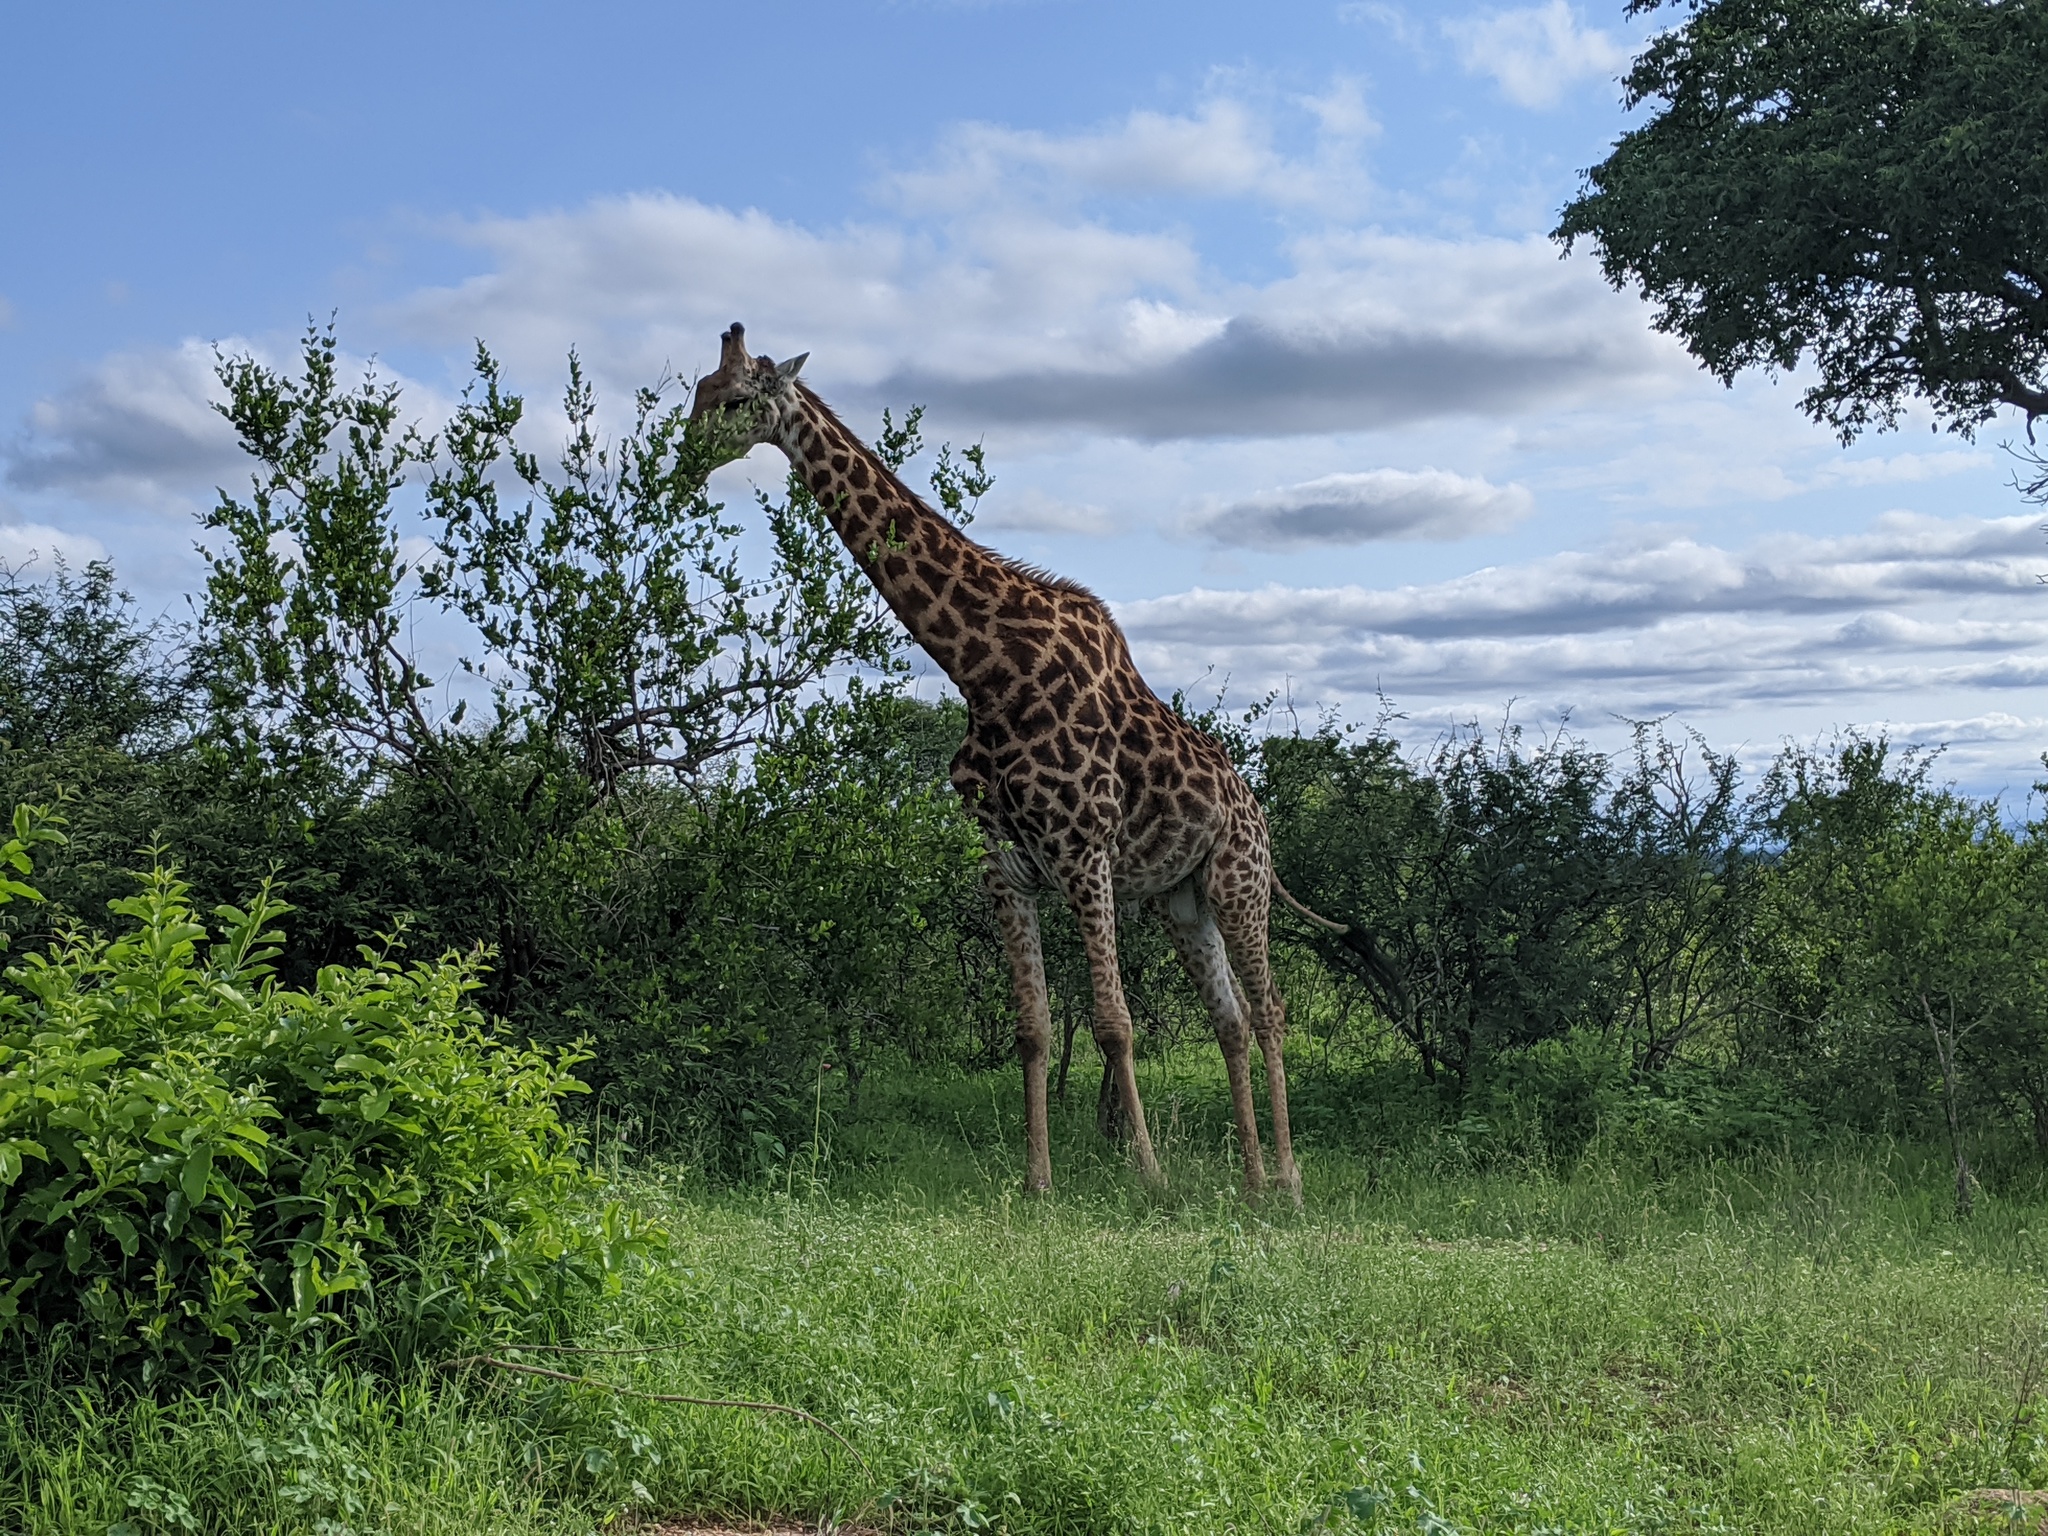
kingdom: Animalia
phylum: Chordata
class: Mammalia
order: Artiodactyla
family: Giraffidae
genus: Giraffa
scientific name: Giraffa giraffa
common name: Southern giraffe
